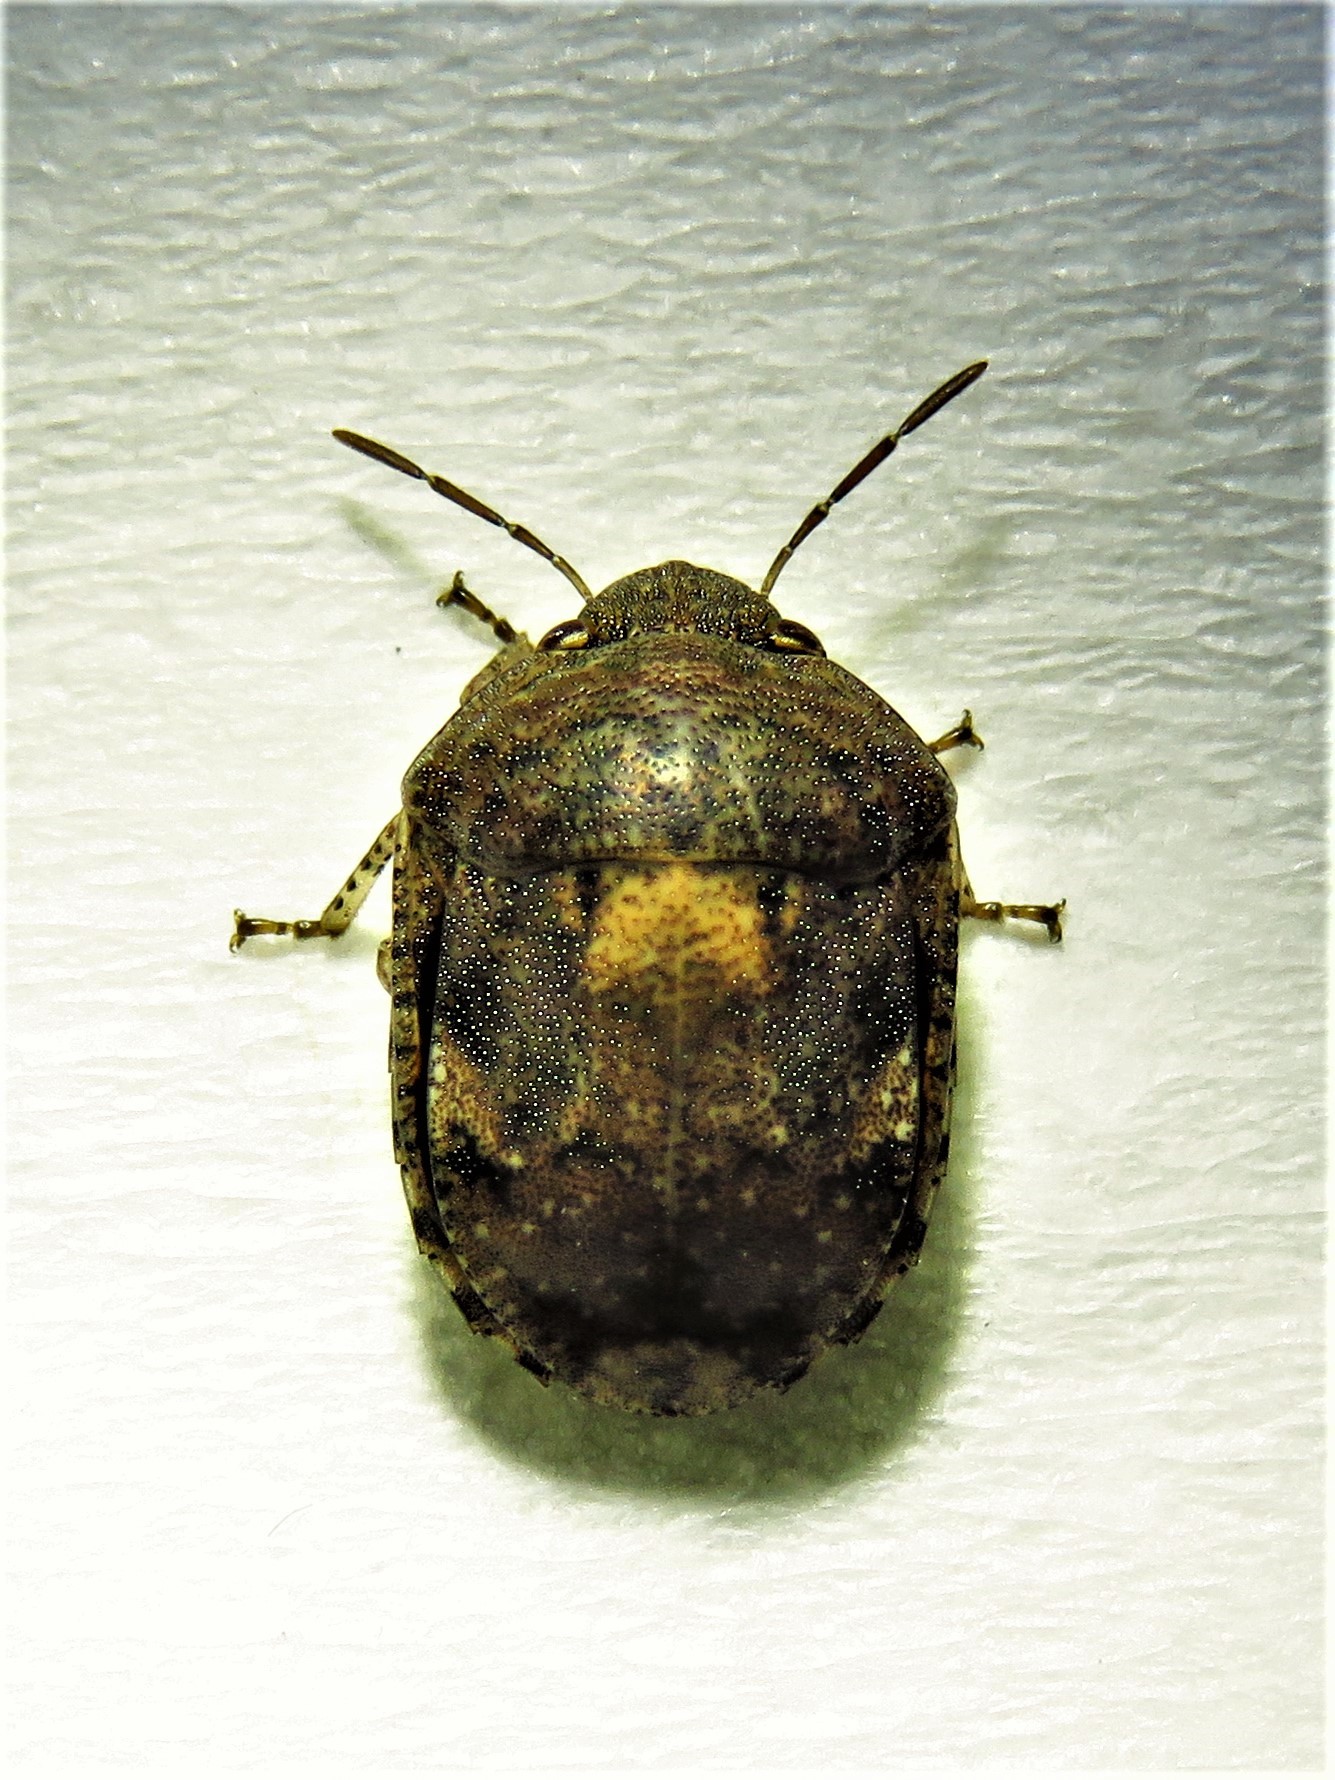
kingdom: Animalia
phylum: Arthropoda
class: Insecta
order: Hemiptera
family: Scutelleridae
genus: Stethaulax
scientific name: Stethaulax marmoratus
